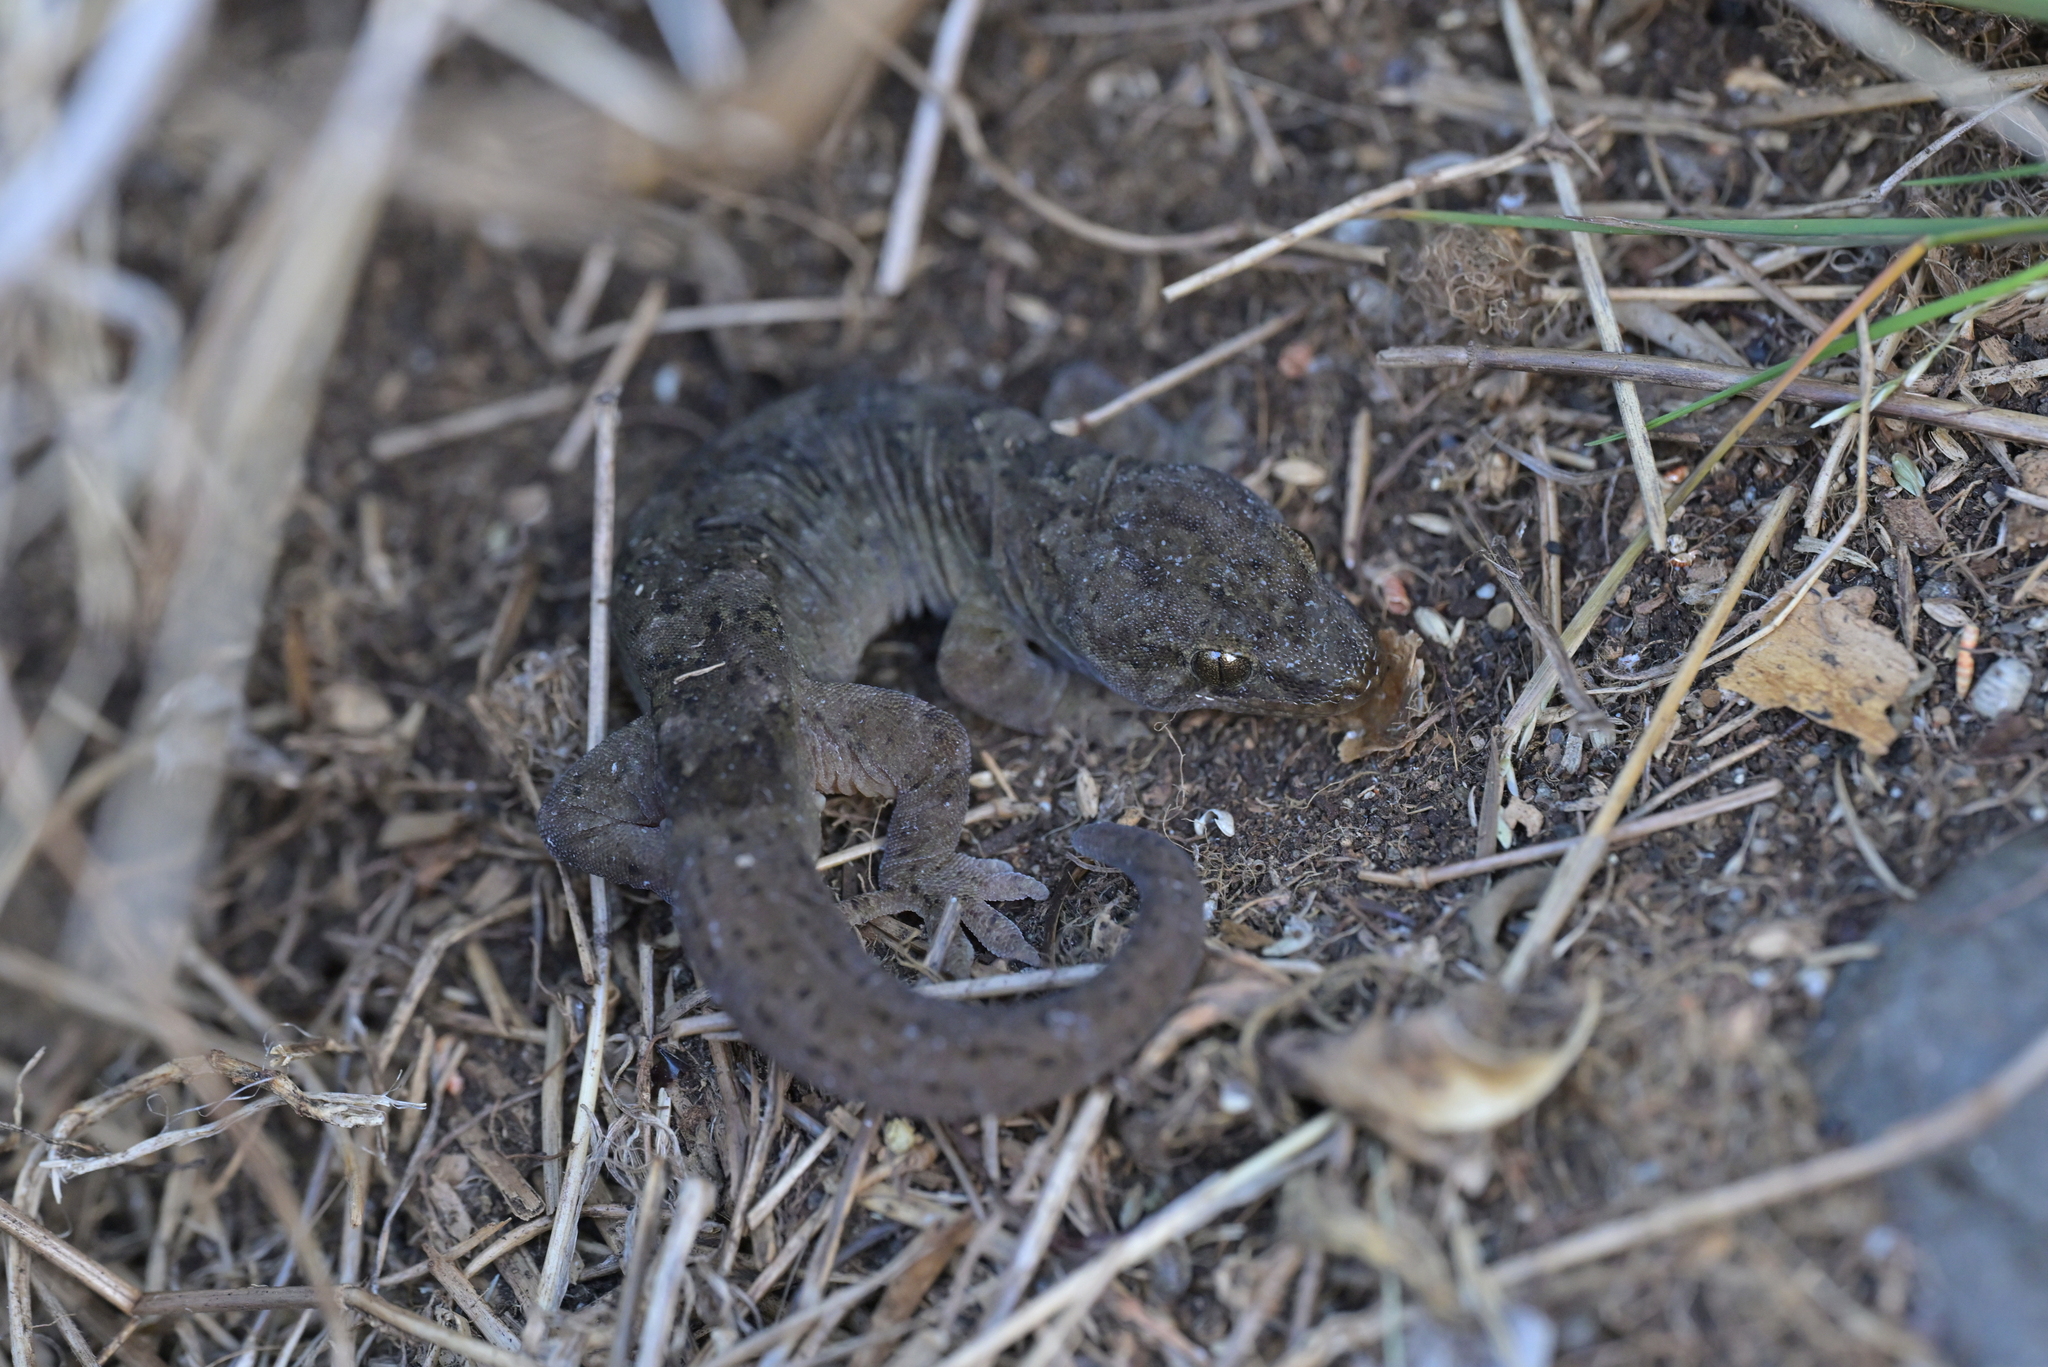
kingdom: Animalia
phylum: Chordata
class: Squamata
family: Diplodactylidae
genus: Woodworthia
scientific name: Woodworthia maculata
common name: Raukawa gecko
